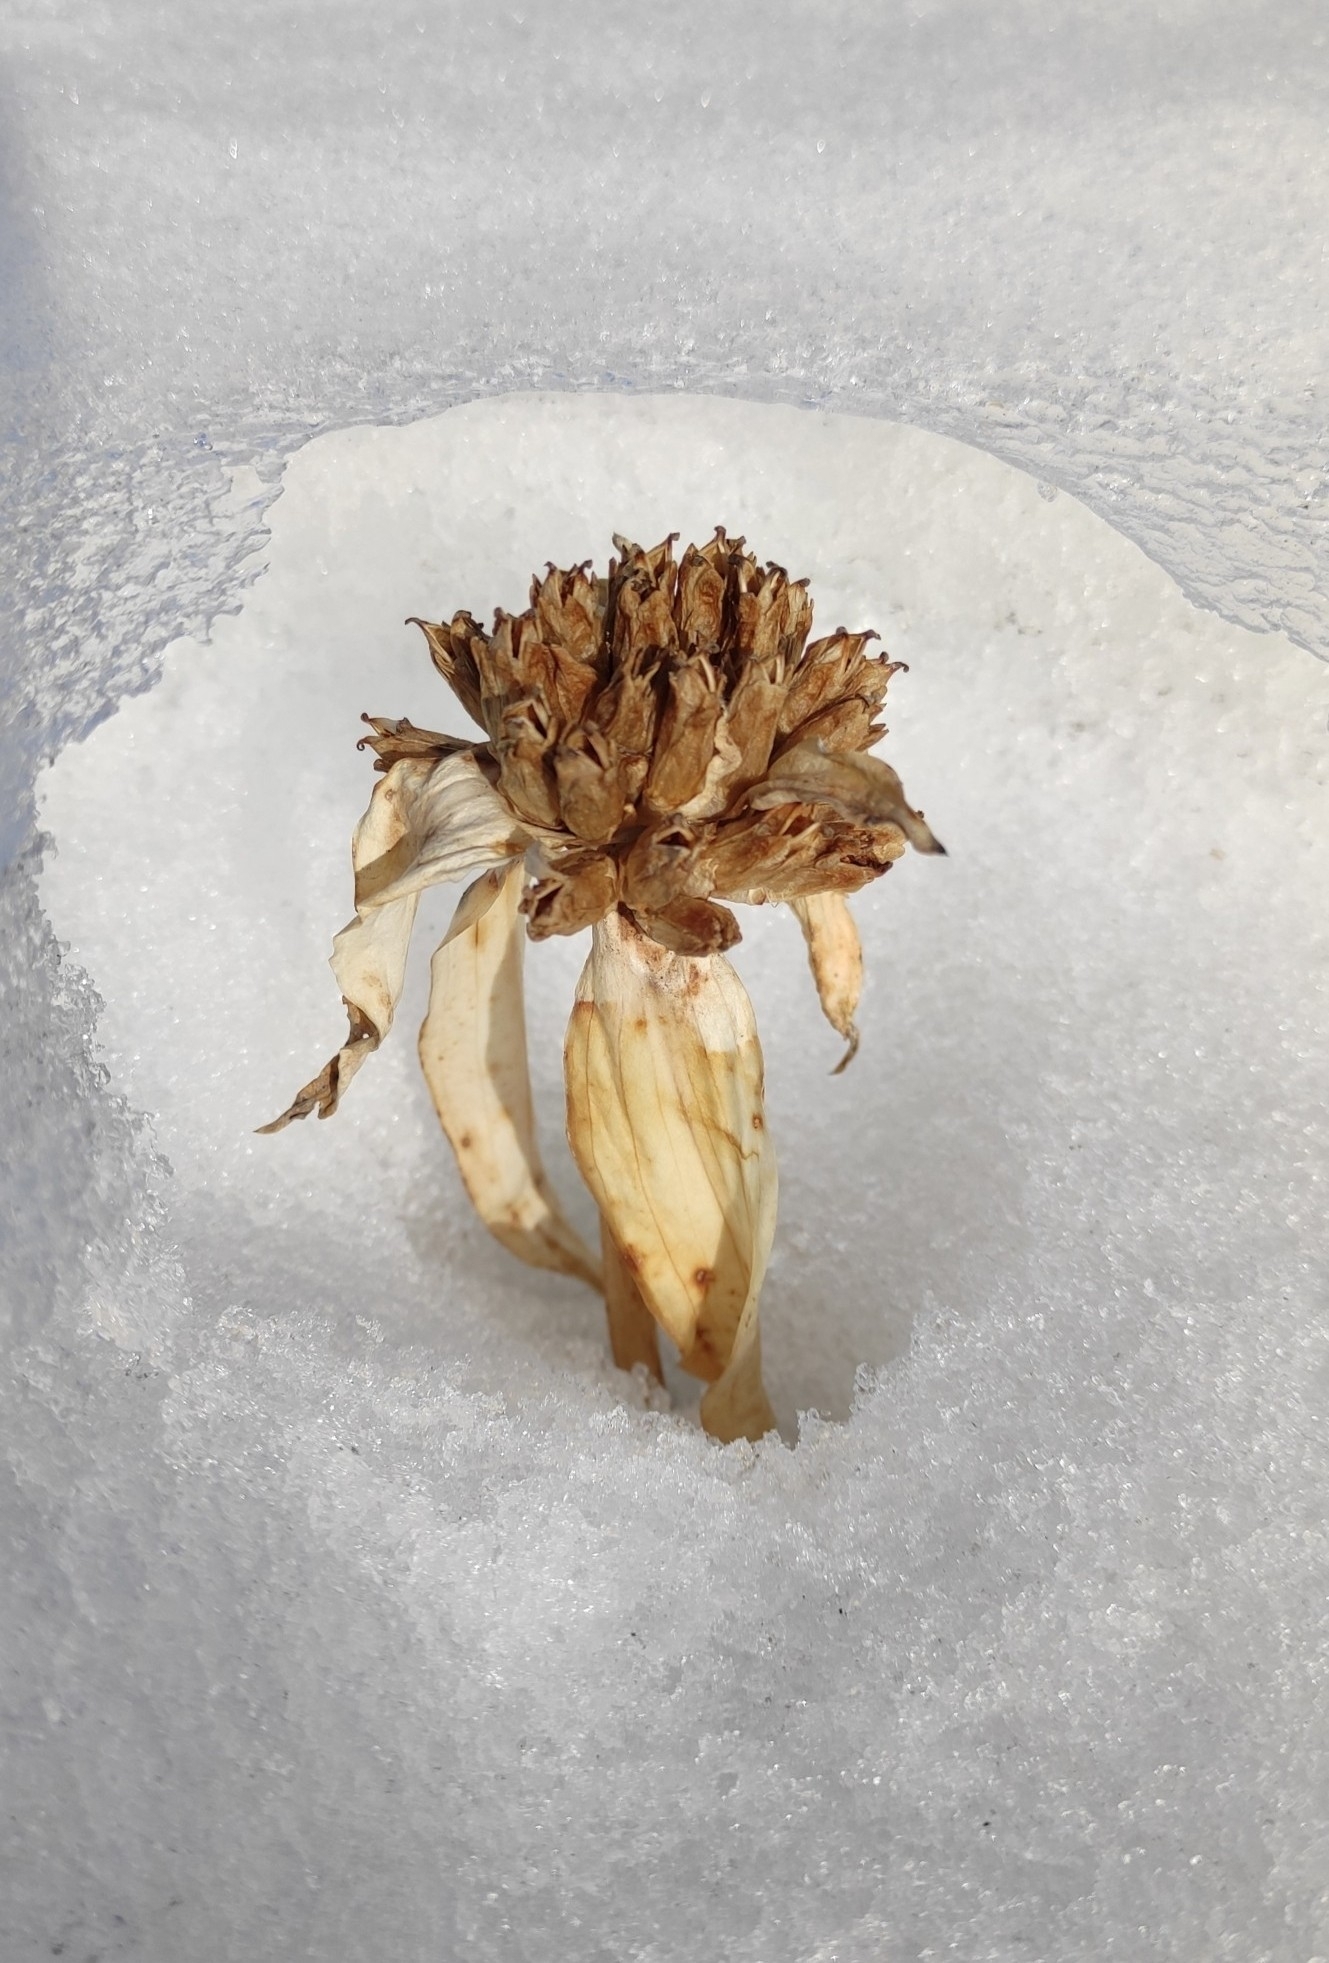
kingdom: Plantae
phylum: Tracheophyta
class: Magnoliopsida
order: Gentianales
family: Gentianaceae
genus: Gentiana
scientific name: Gentiana macrophylla
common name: Large-leaf gentian
